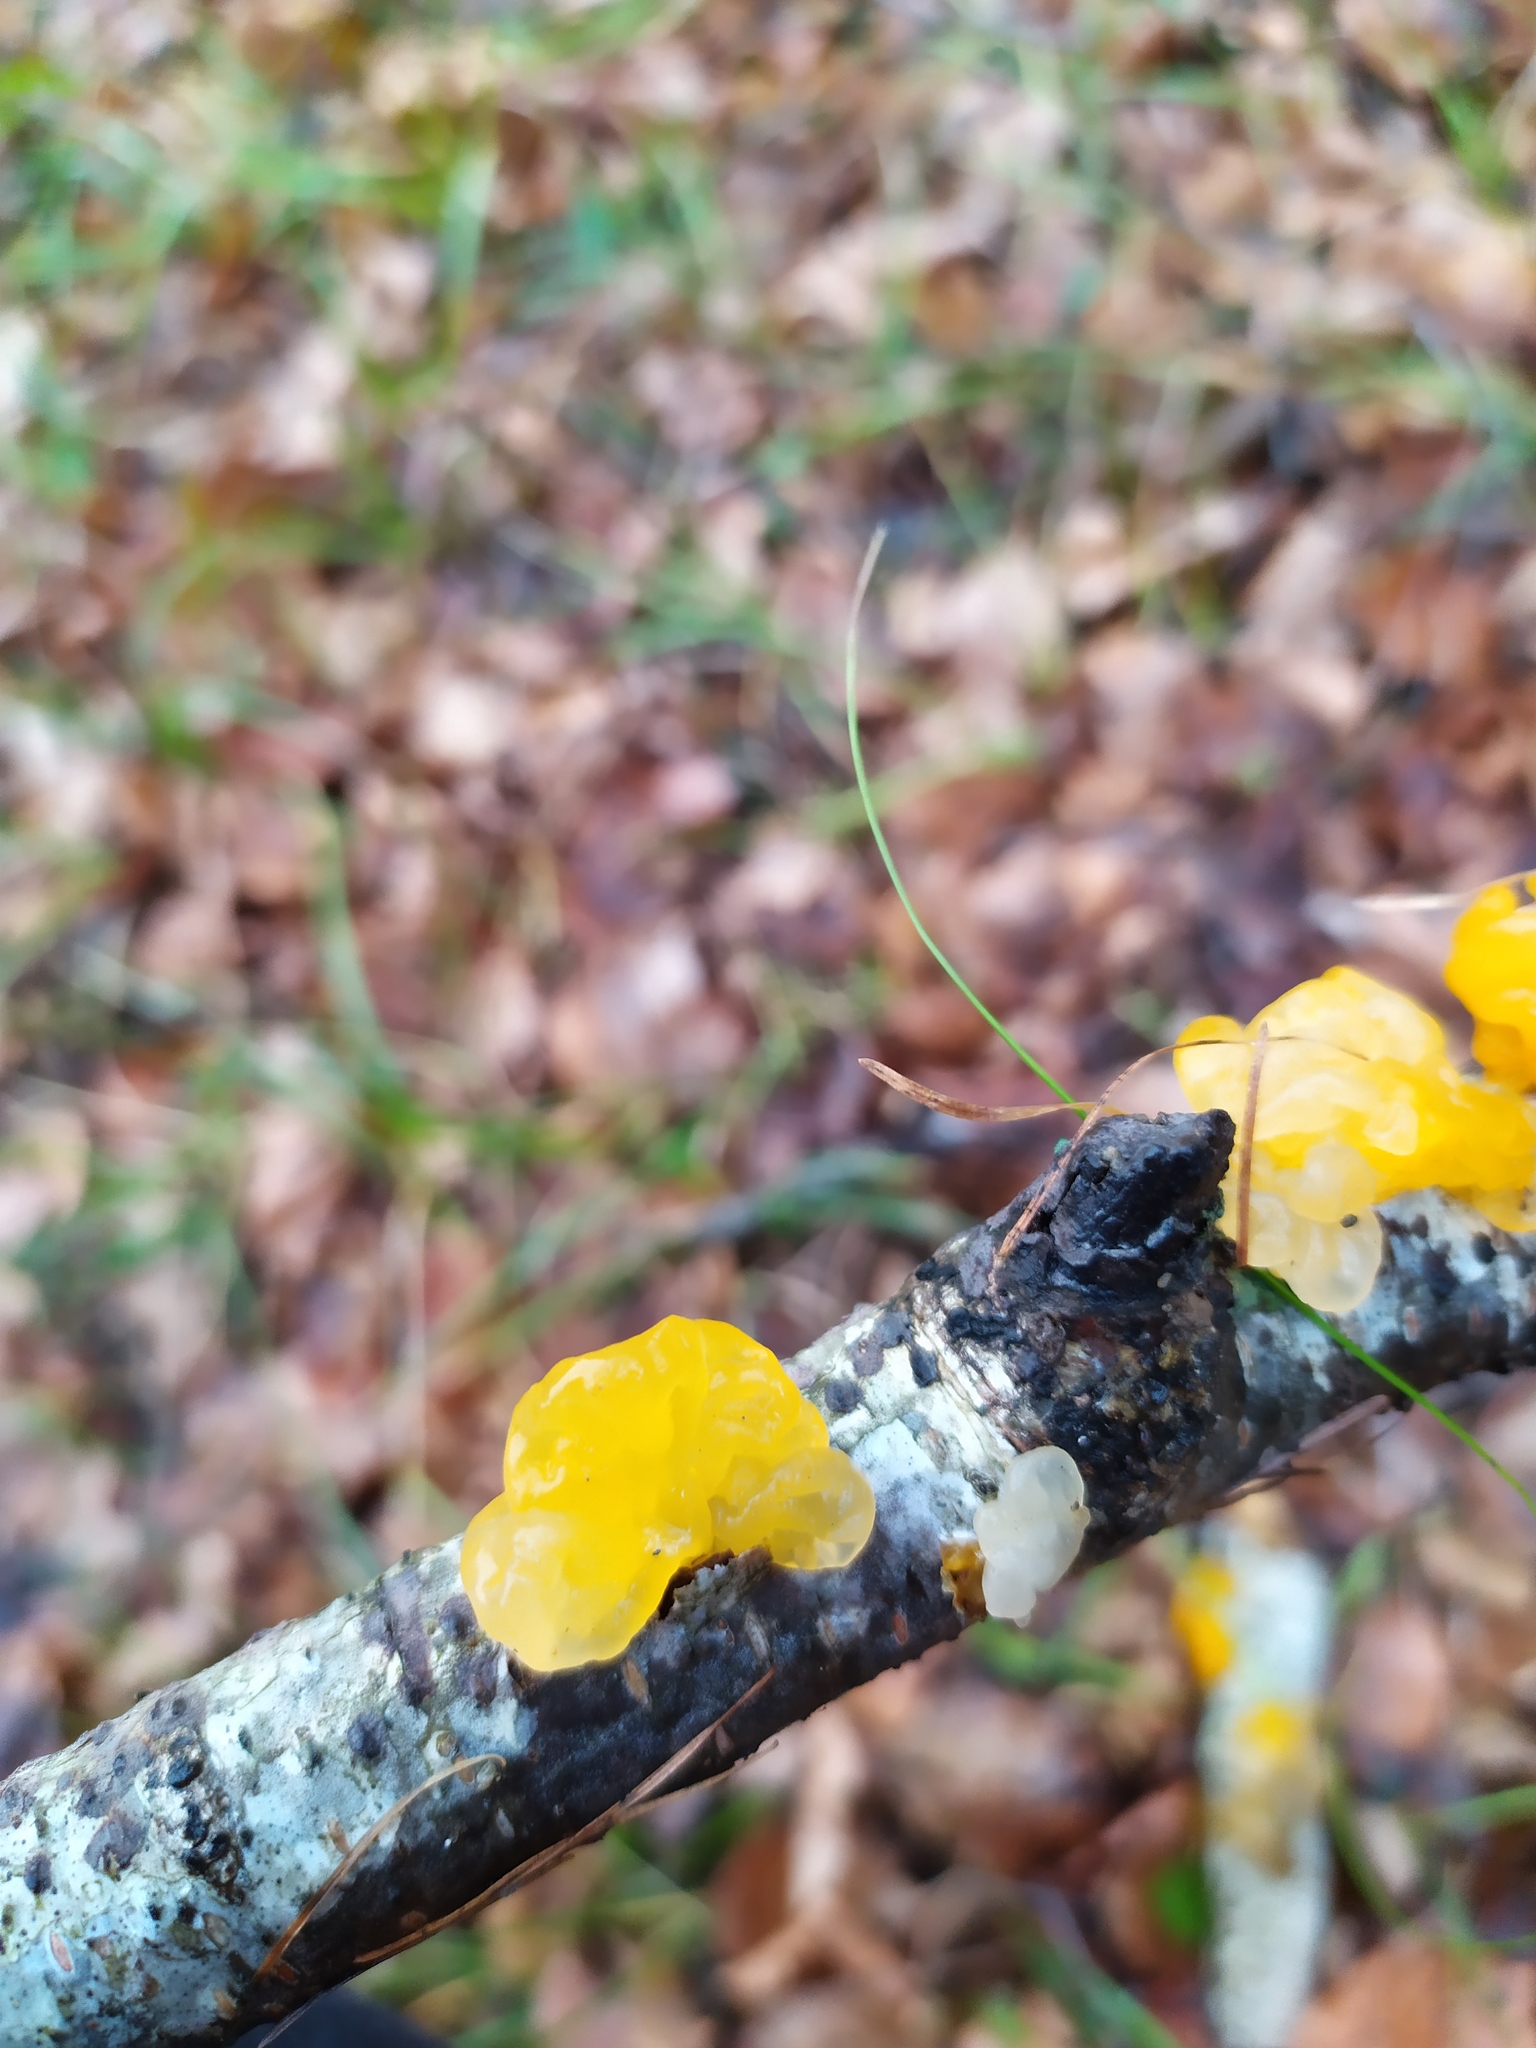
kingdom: Fungi
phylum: Basidiomycota
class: Tremellomycetes
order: Tremellales
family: Tremellaceae
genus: Tremella
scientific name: Tremella mesenterica
